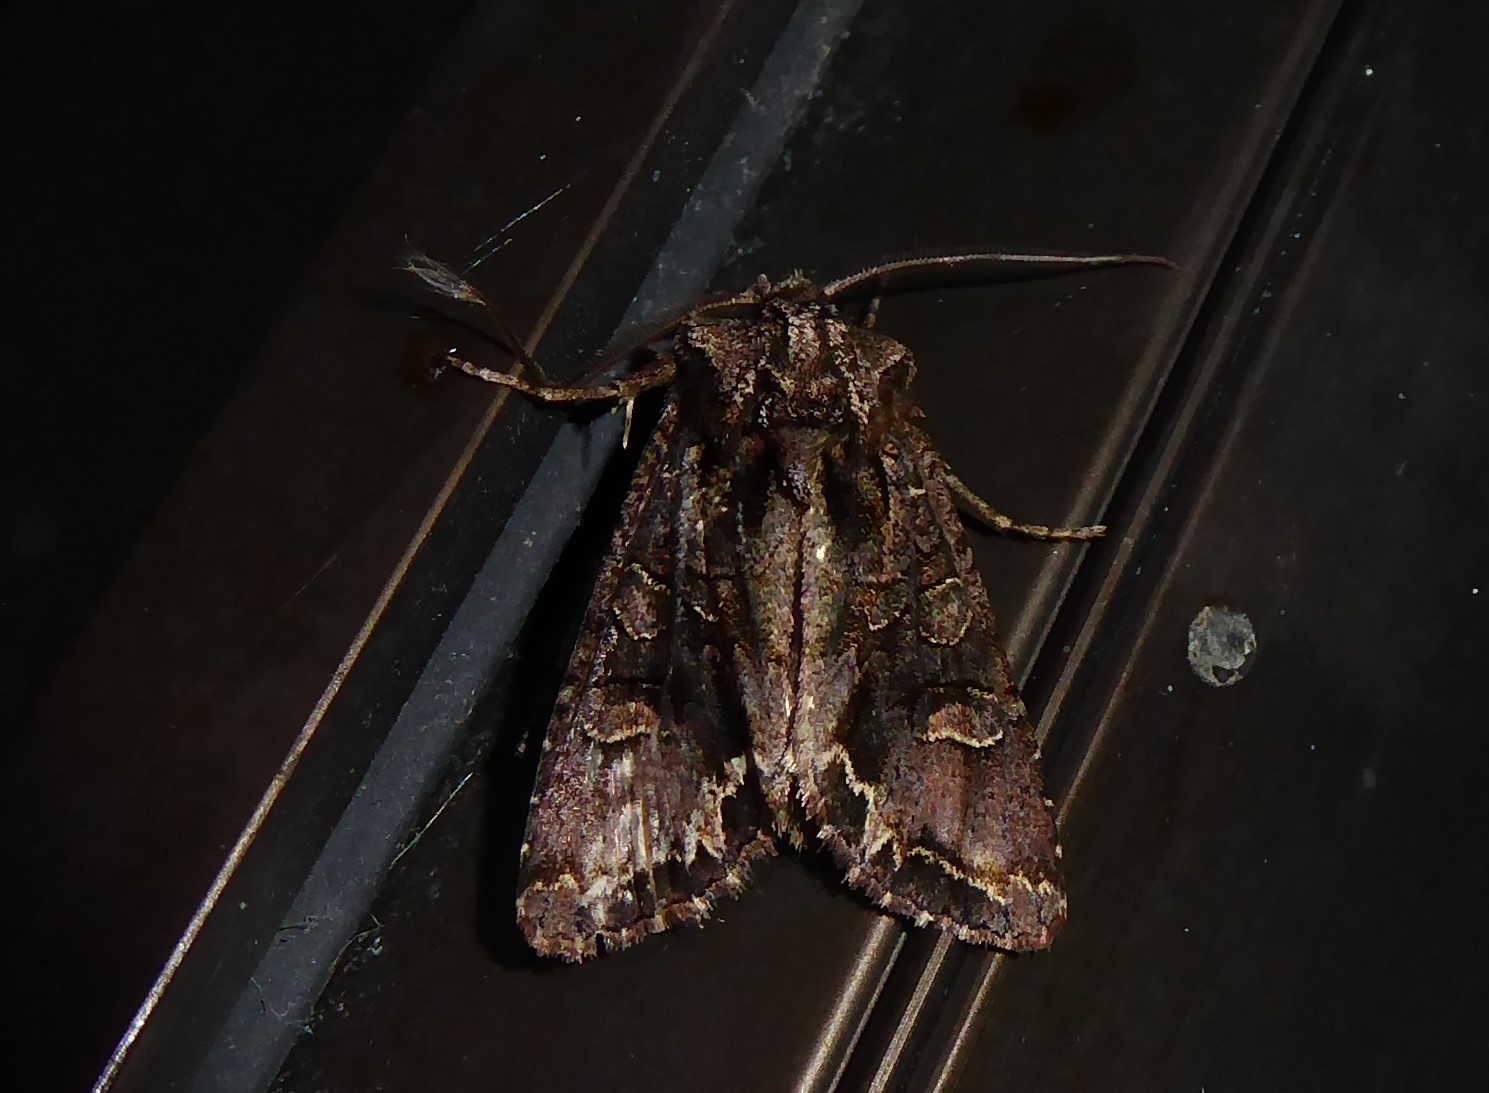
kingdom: Animalia
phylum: Arthropoda
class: Insecta
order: Lepidoptera
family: Noctuidae
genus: Ichneutica
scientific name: Ichneutica skelloni
